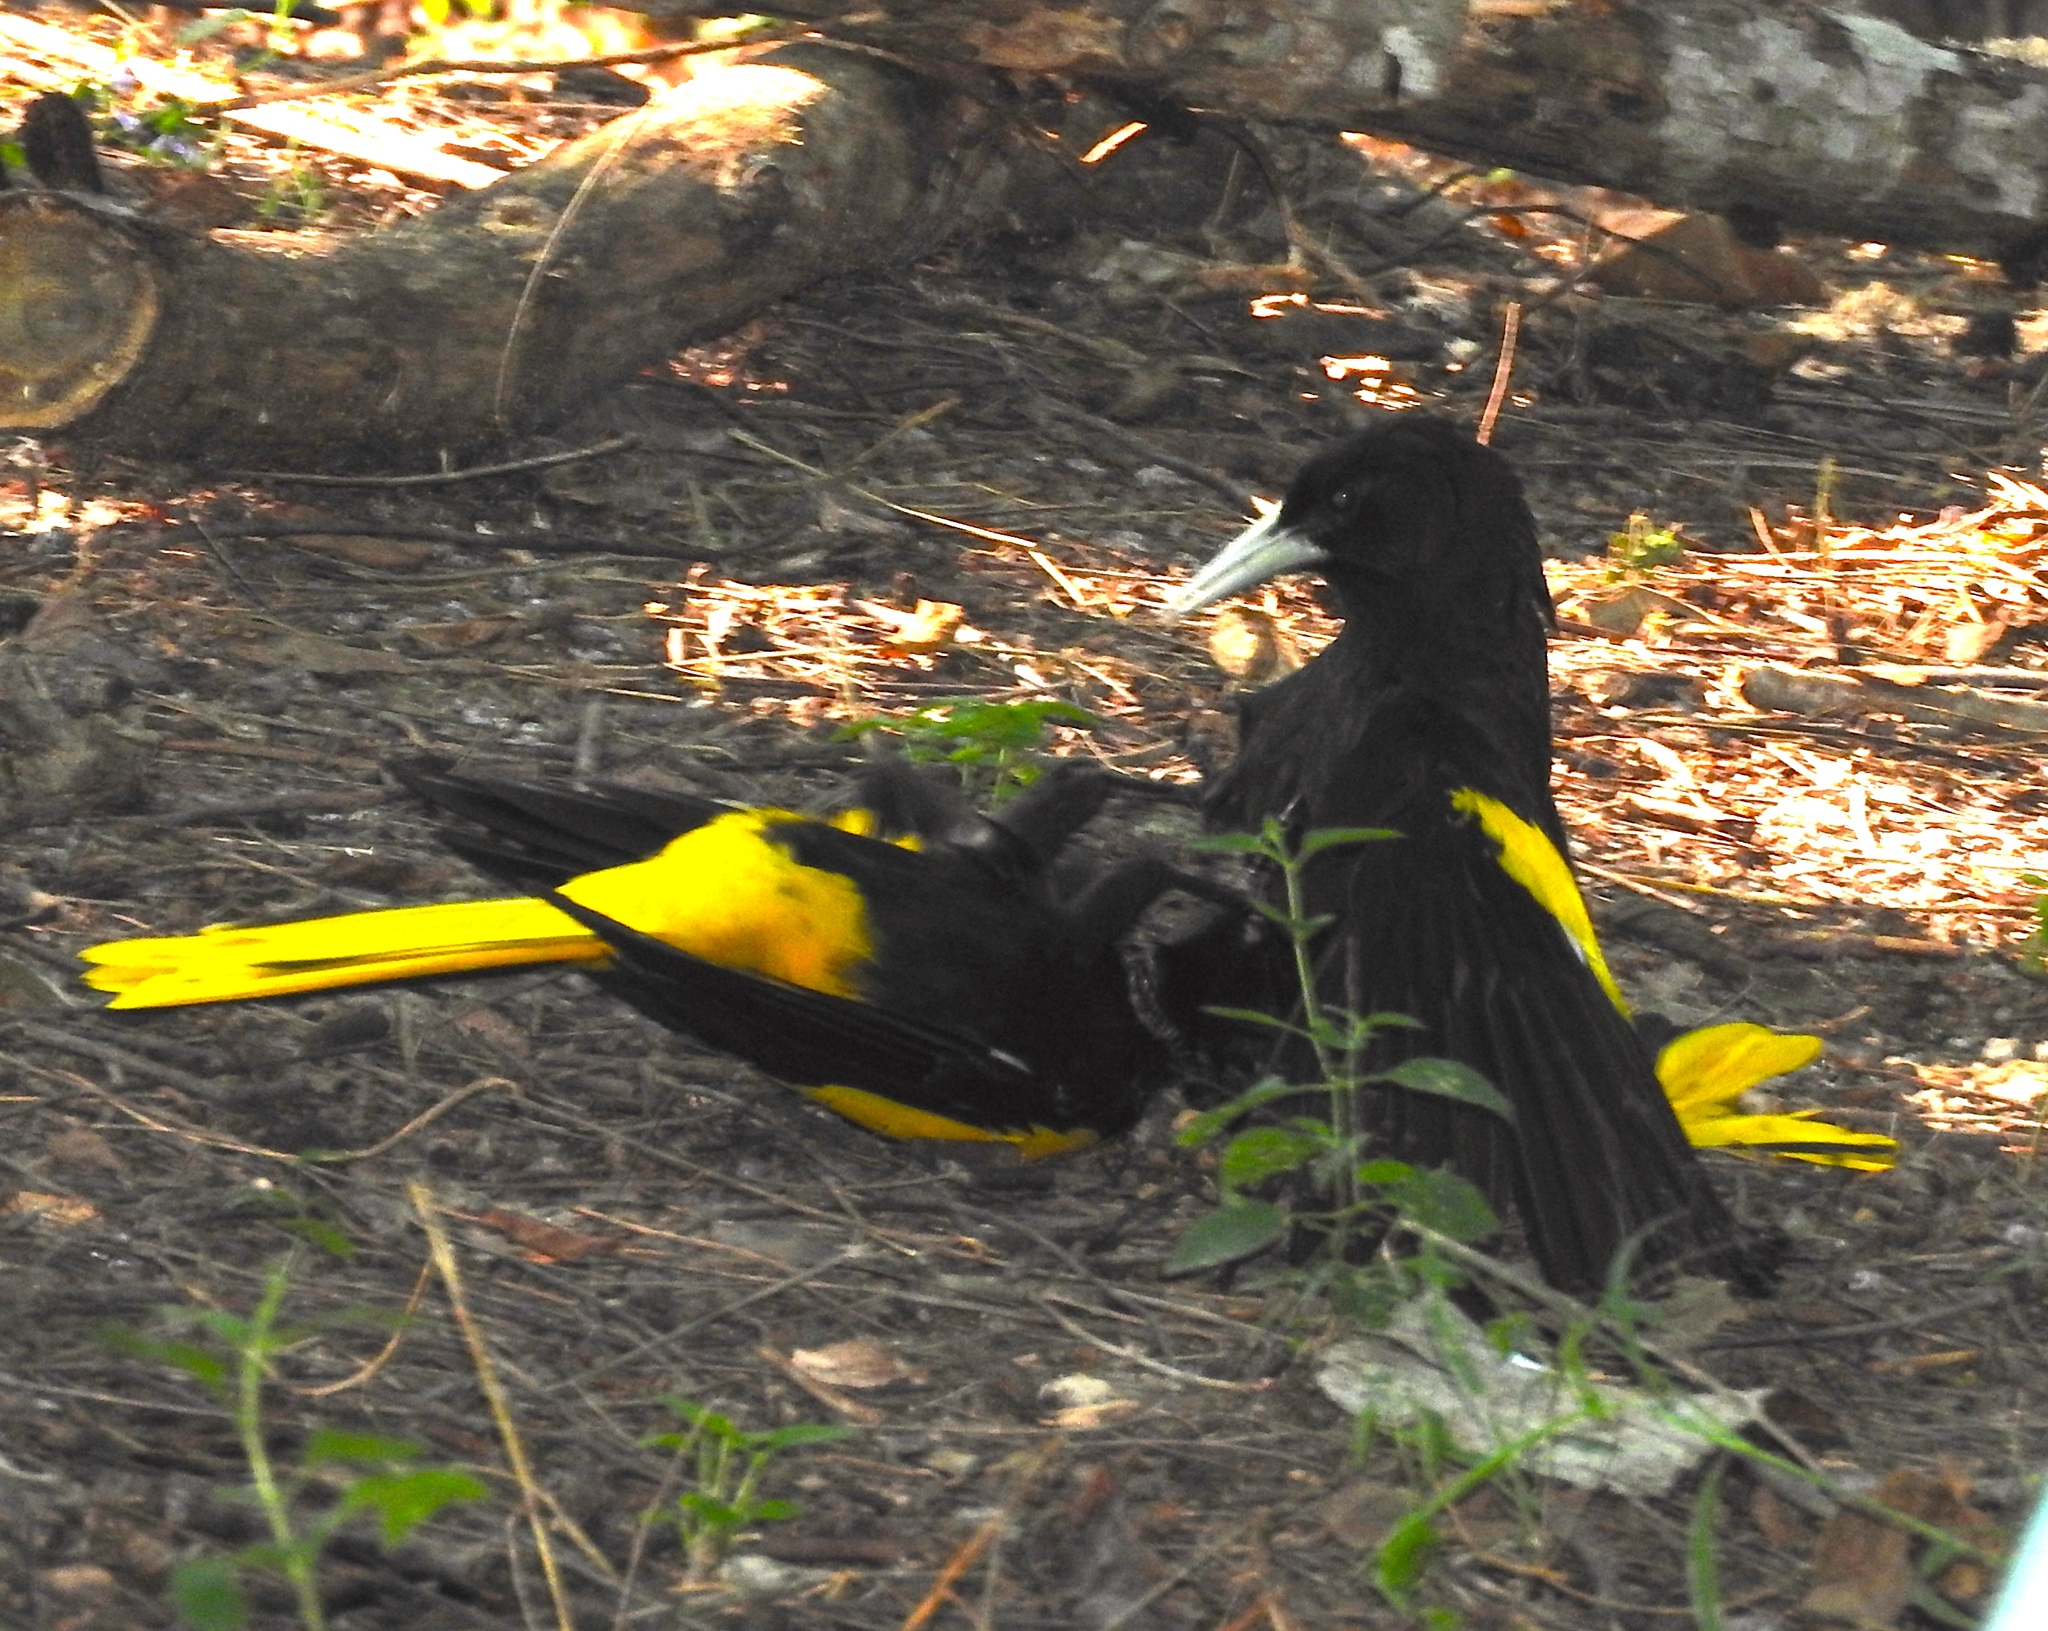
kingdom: Animalia
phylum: Chordata
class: Aves
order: Passeriformes
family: Icteridae
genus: Cacicus
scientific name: Cacicus melanicterus
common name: Yellow-winged cacique
